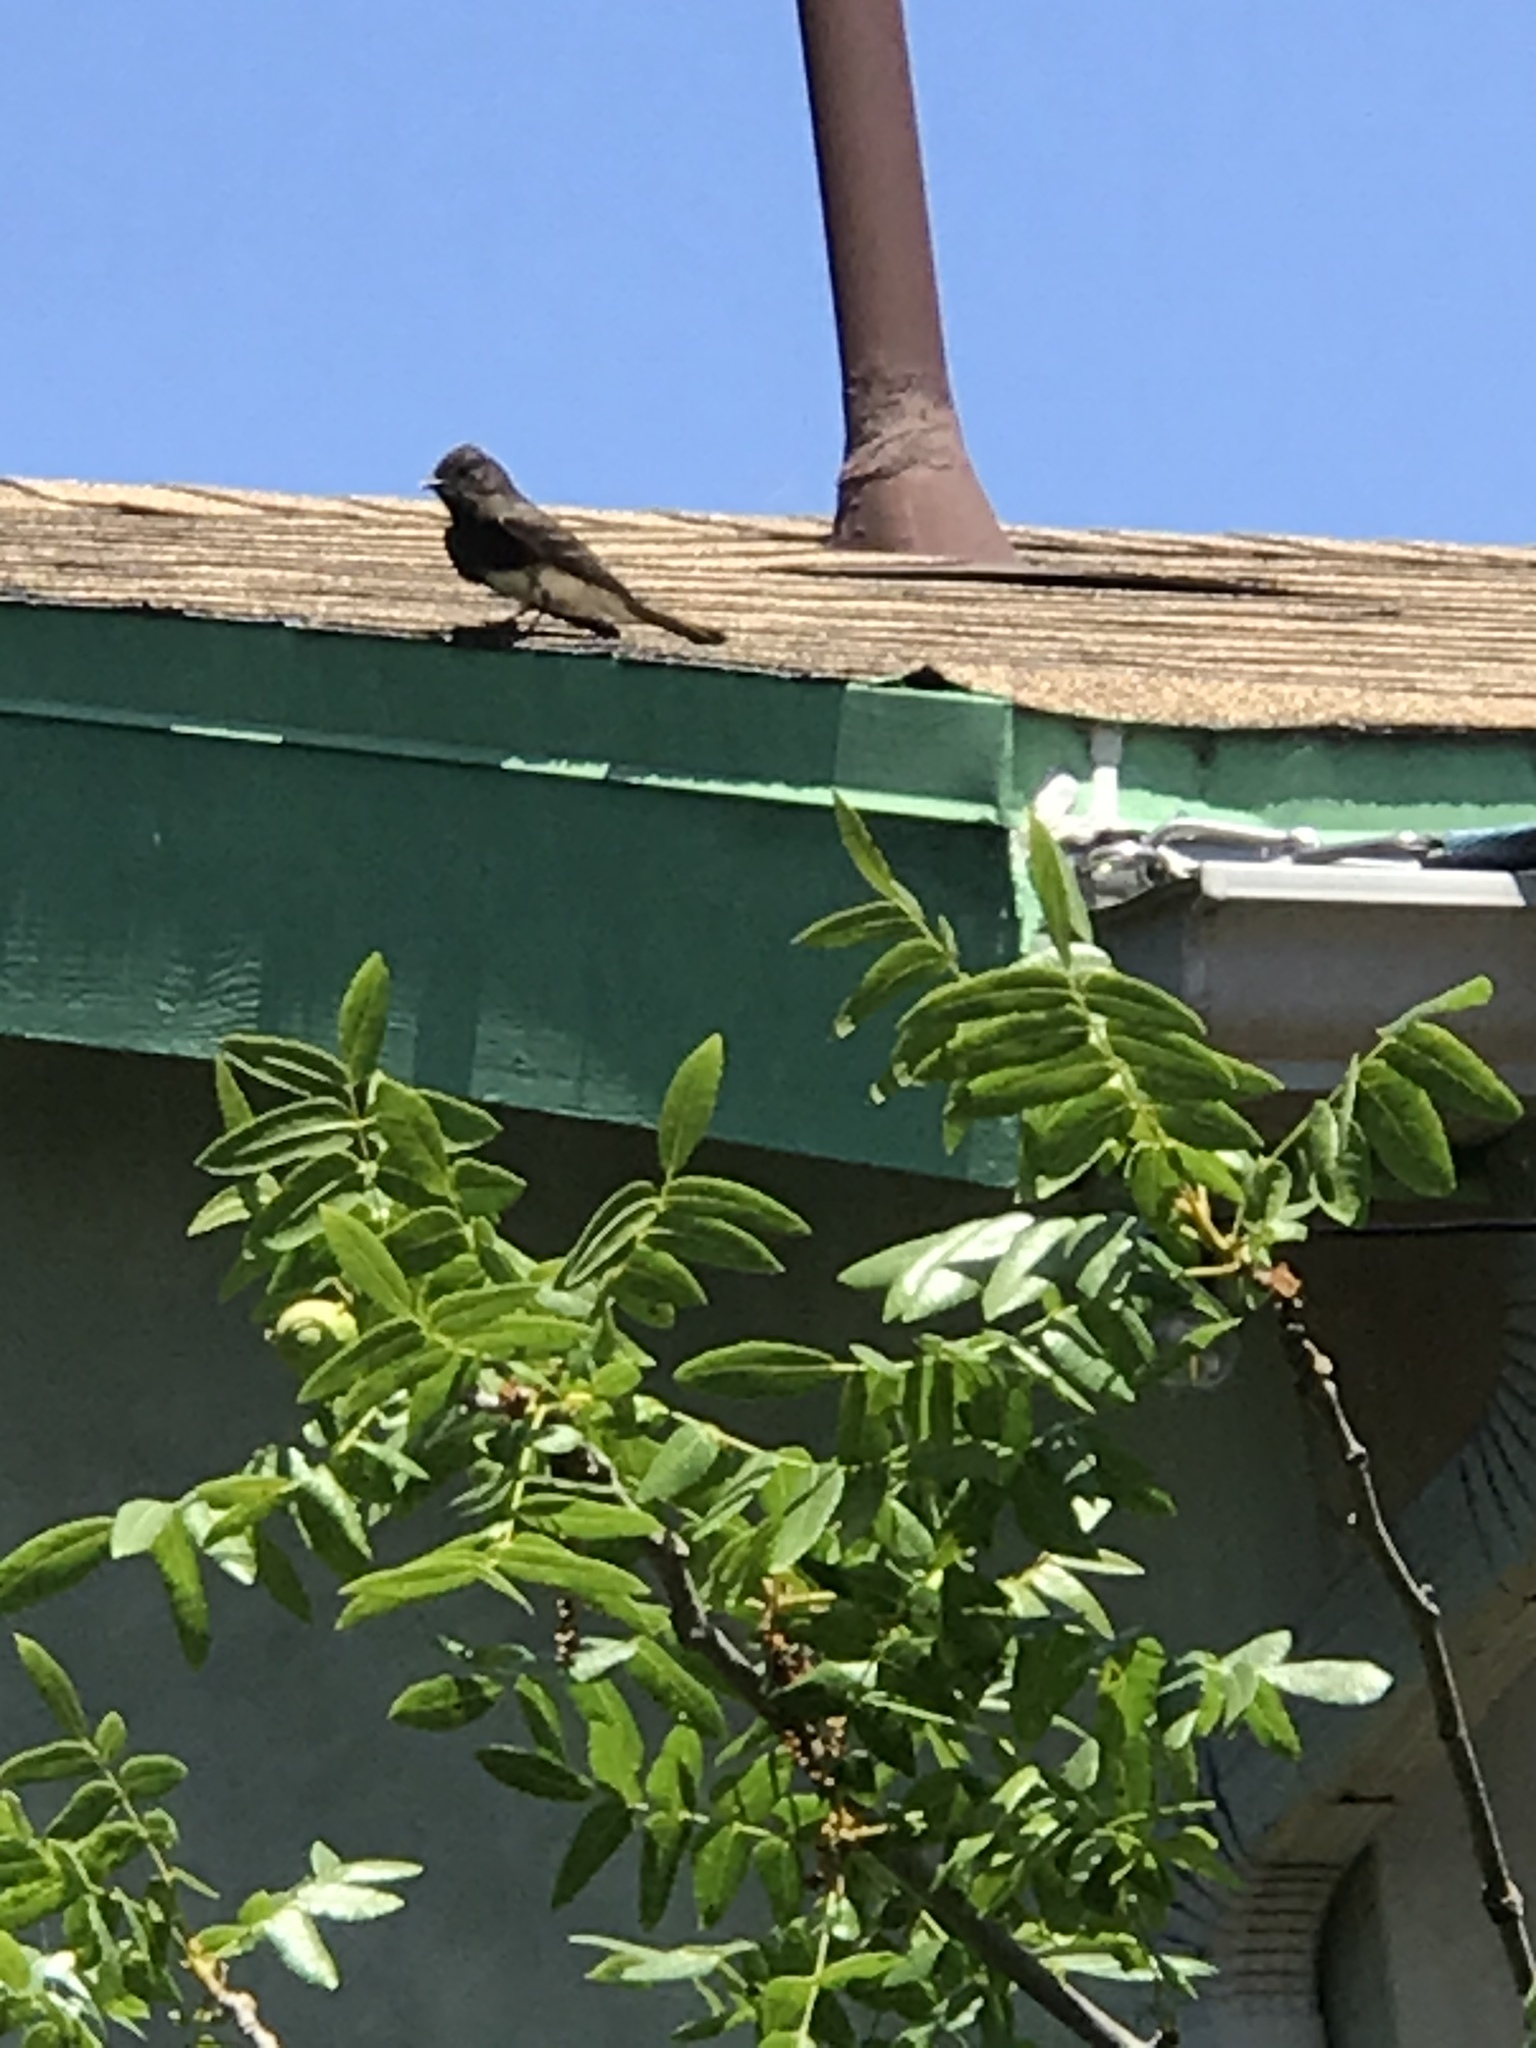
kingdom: Animalia
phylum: Chordata
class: Aves
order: Passeriformes
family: Tyrannidae
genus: Sayornis
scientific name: Sayornis nigricans
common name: Black phoebe
